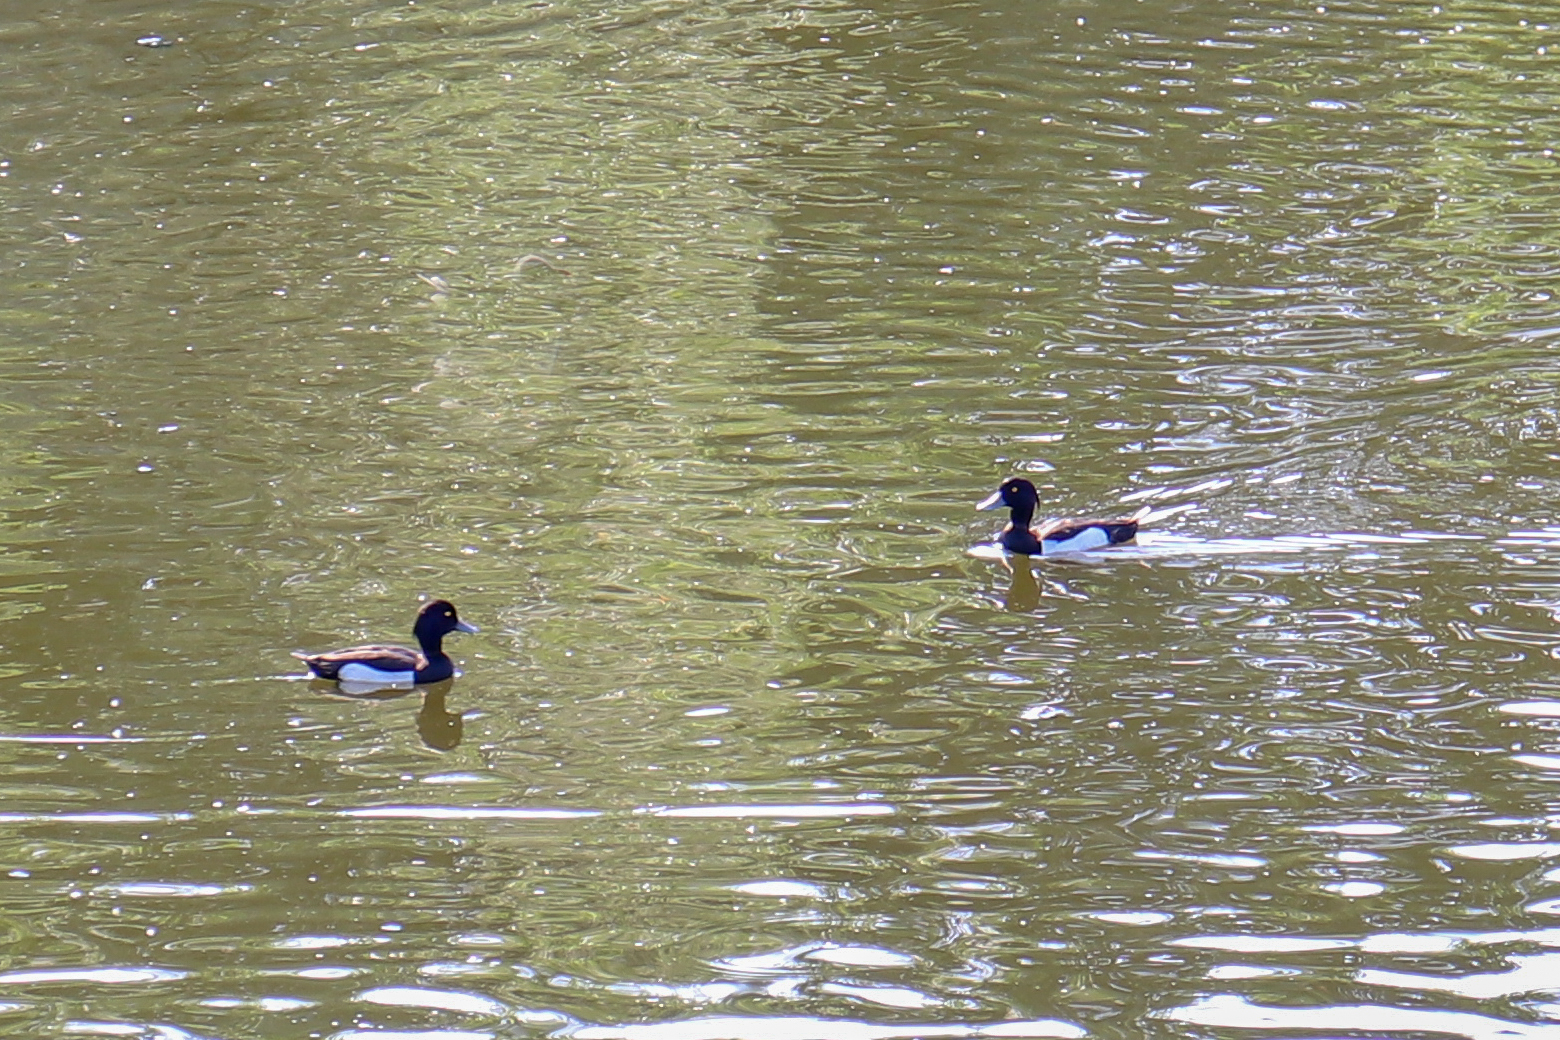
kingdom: Animalia
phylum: Chordata
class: Aves
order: Anseriformes
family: Anatidae
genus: Aythya
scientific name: Aythya fuligula
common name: Tufted duck
